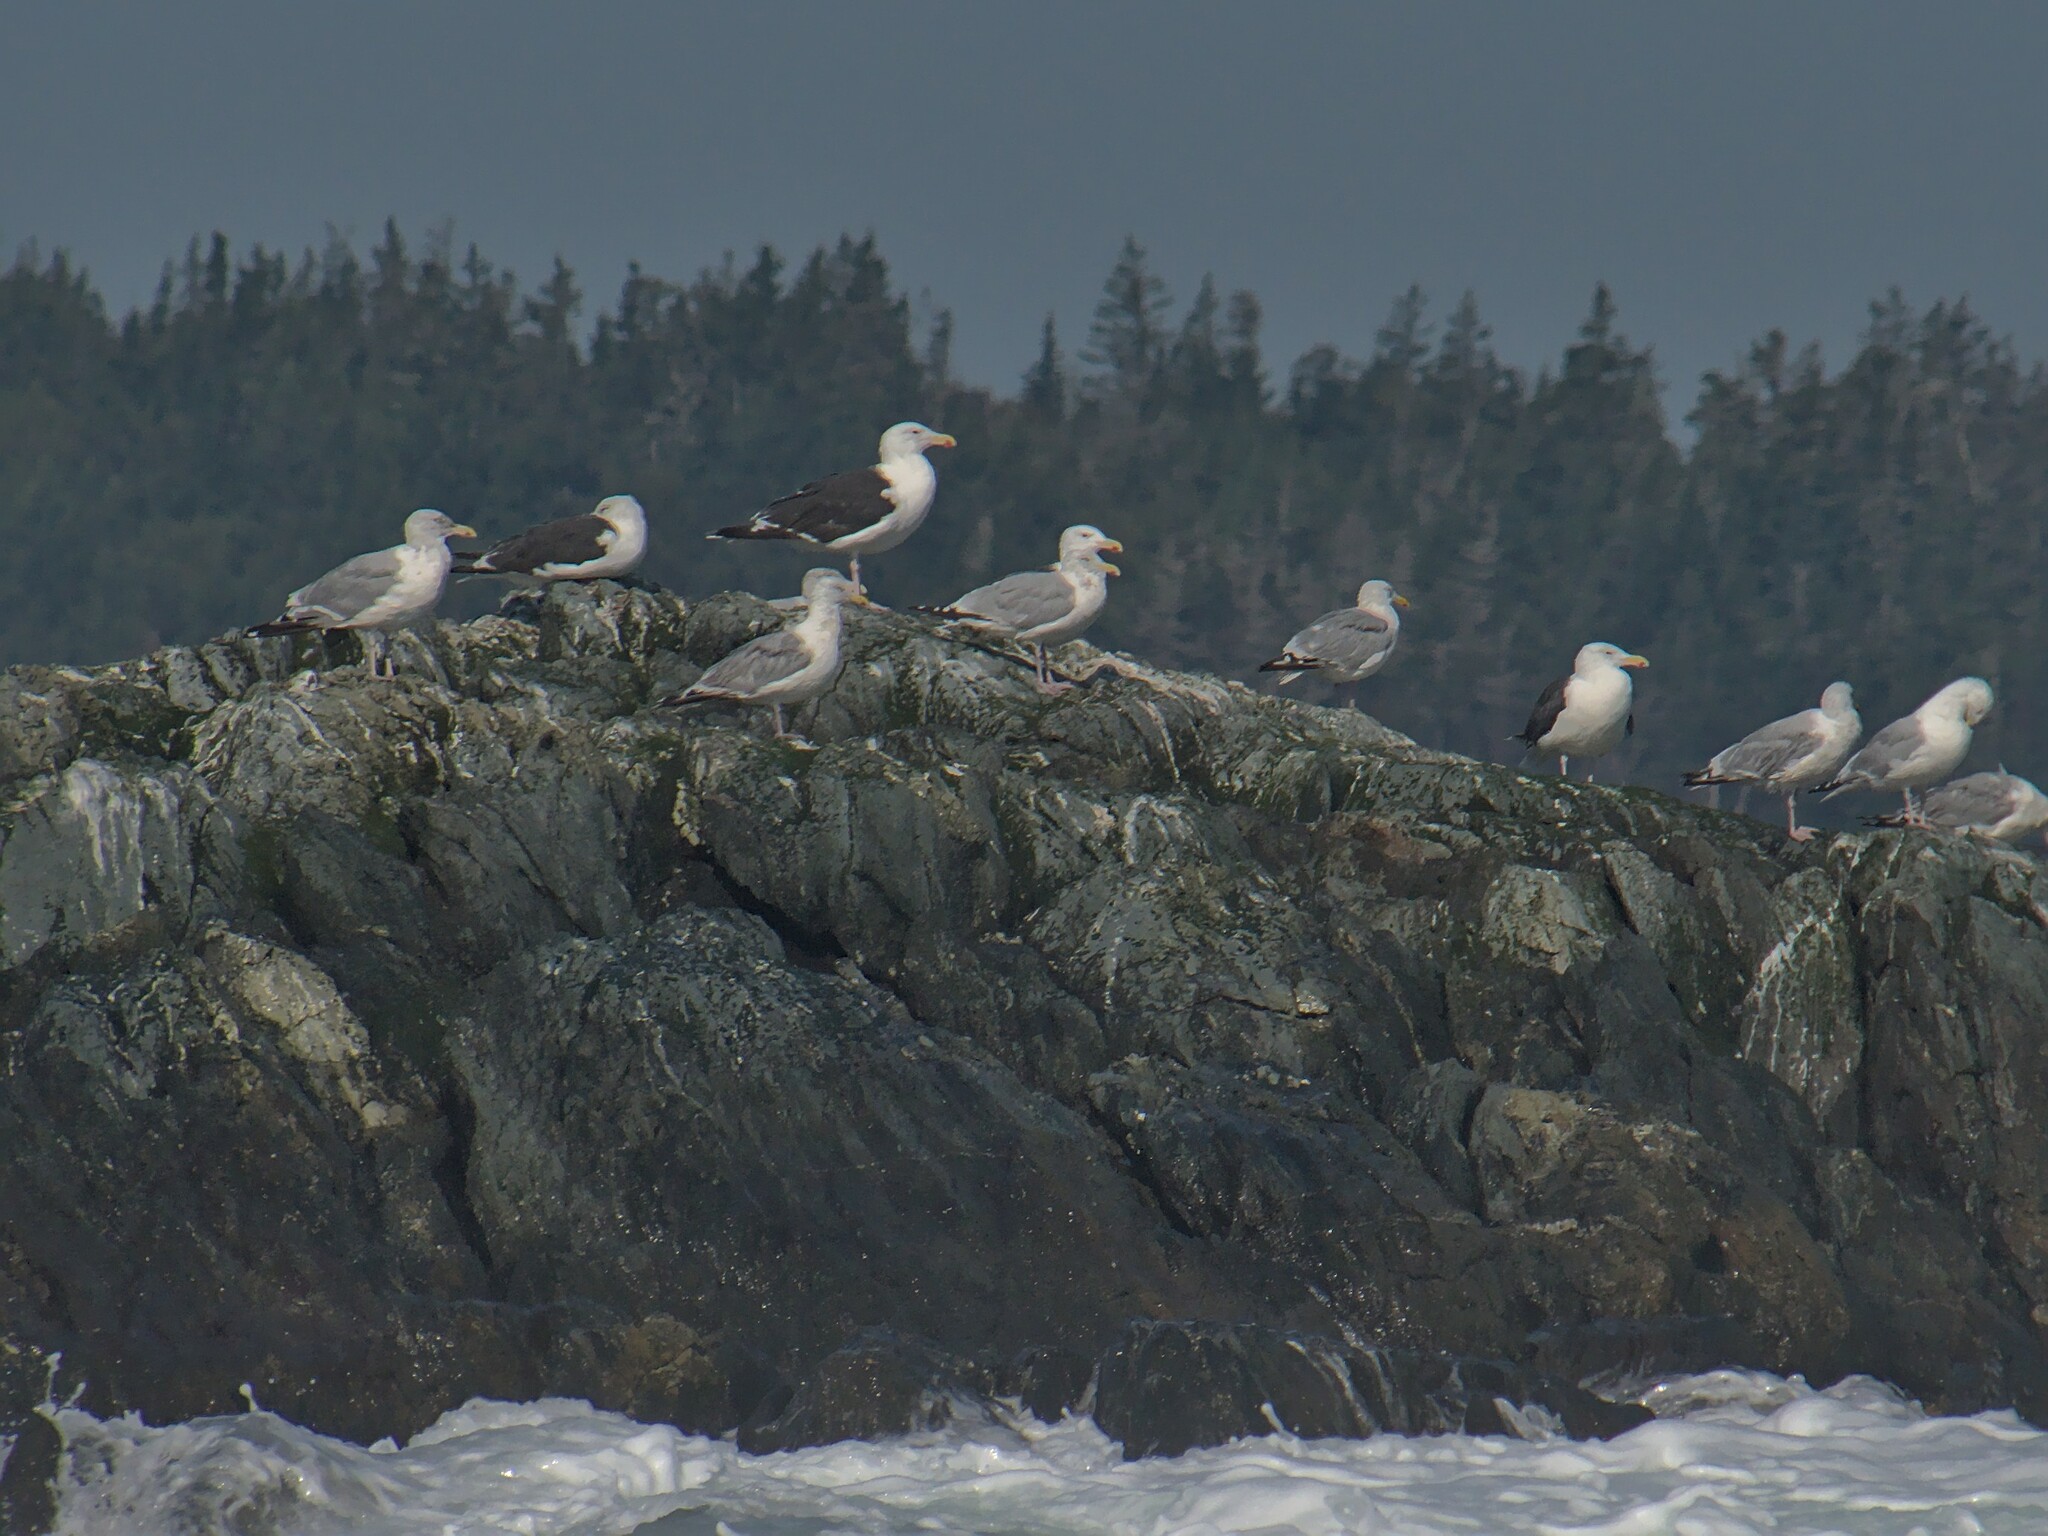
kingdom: Animalia
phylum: Chordata
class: Aves
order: Charadriiformes
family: Laridae
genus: Larus
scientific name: Larus marinus
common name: Great black-backed gull
